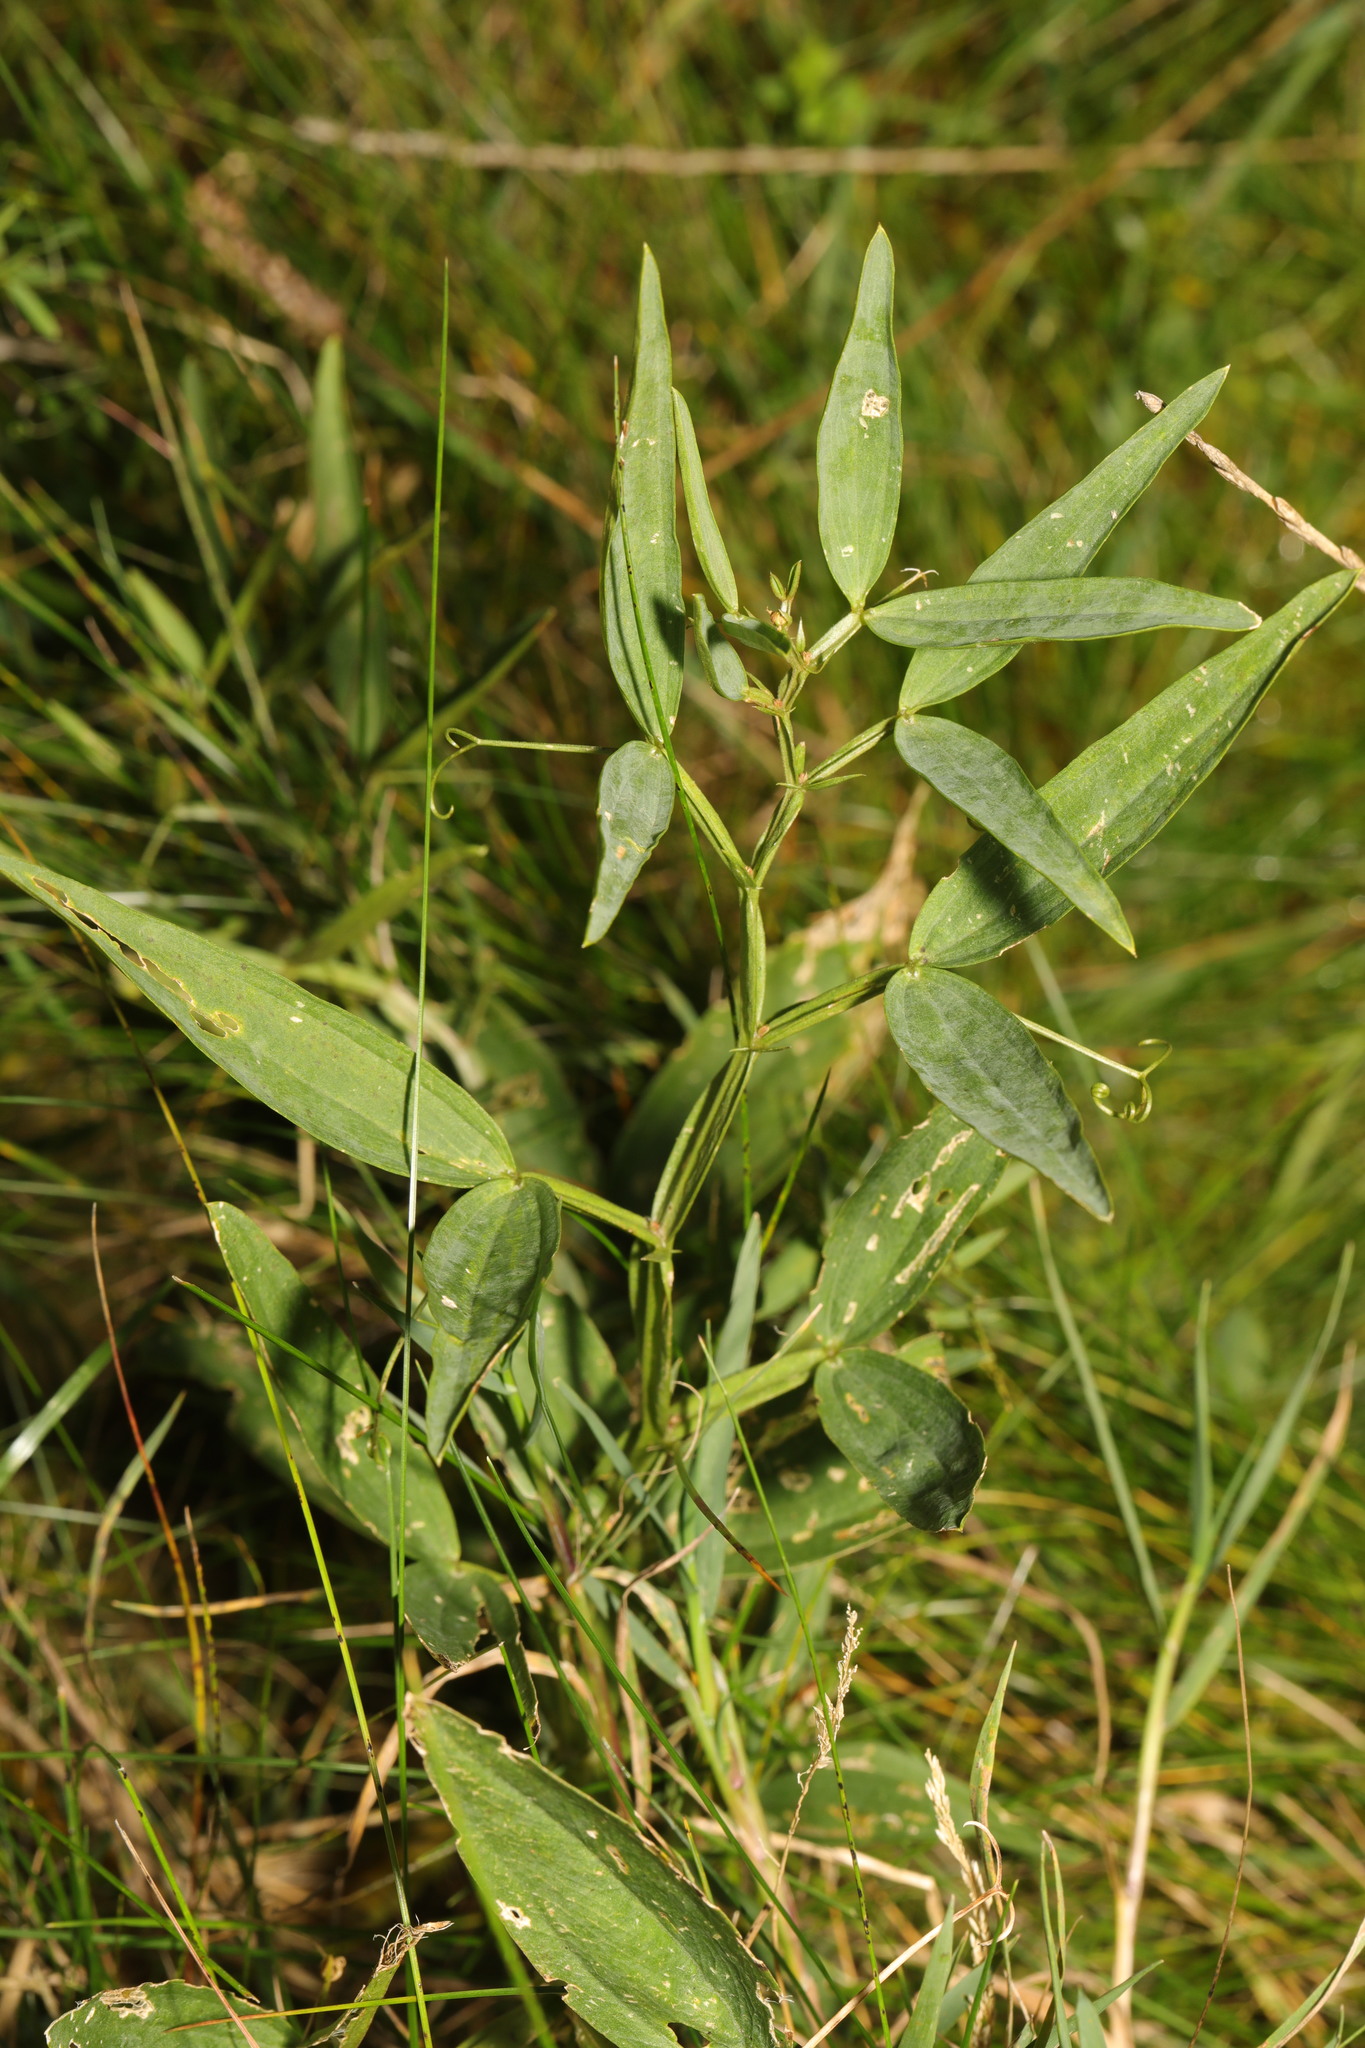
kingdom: Plantae
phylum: Tracheophyta
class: Magnoliopsida
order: Fabales
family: Fabaceae
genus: Lathyrus
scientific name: Lathyrus sylvestris
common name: Flat pea
